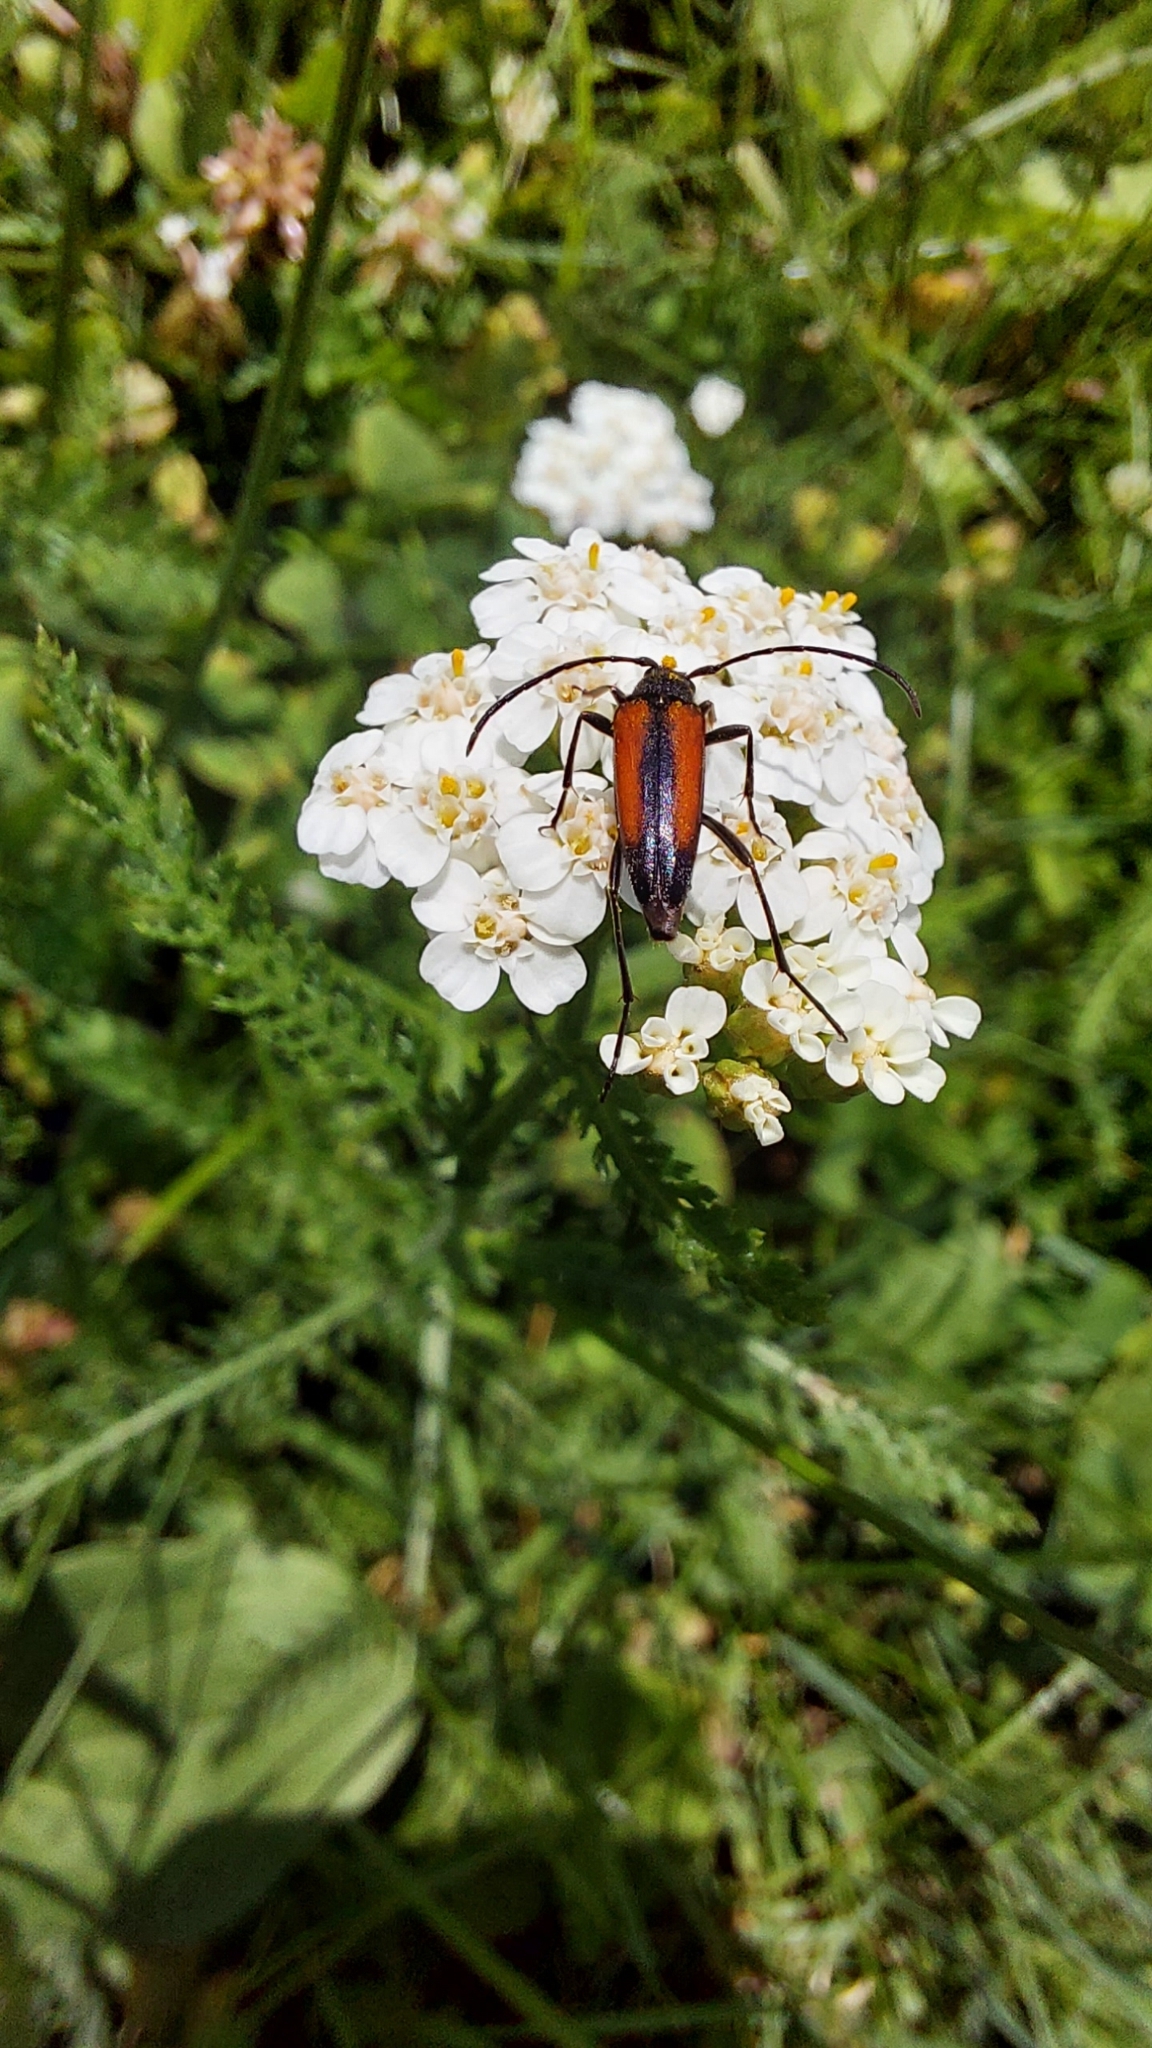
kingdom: Animalia
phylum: Arthropoda
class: Insecta
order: Coleoptera
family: Cerambycidae
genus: Stenurella
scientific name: Stenurella melanura
